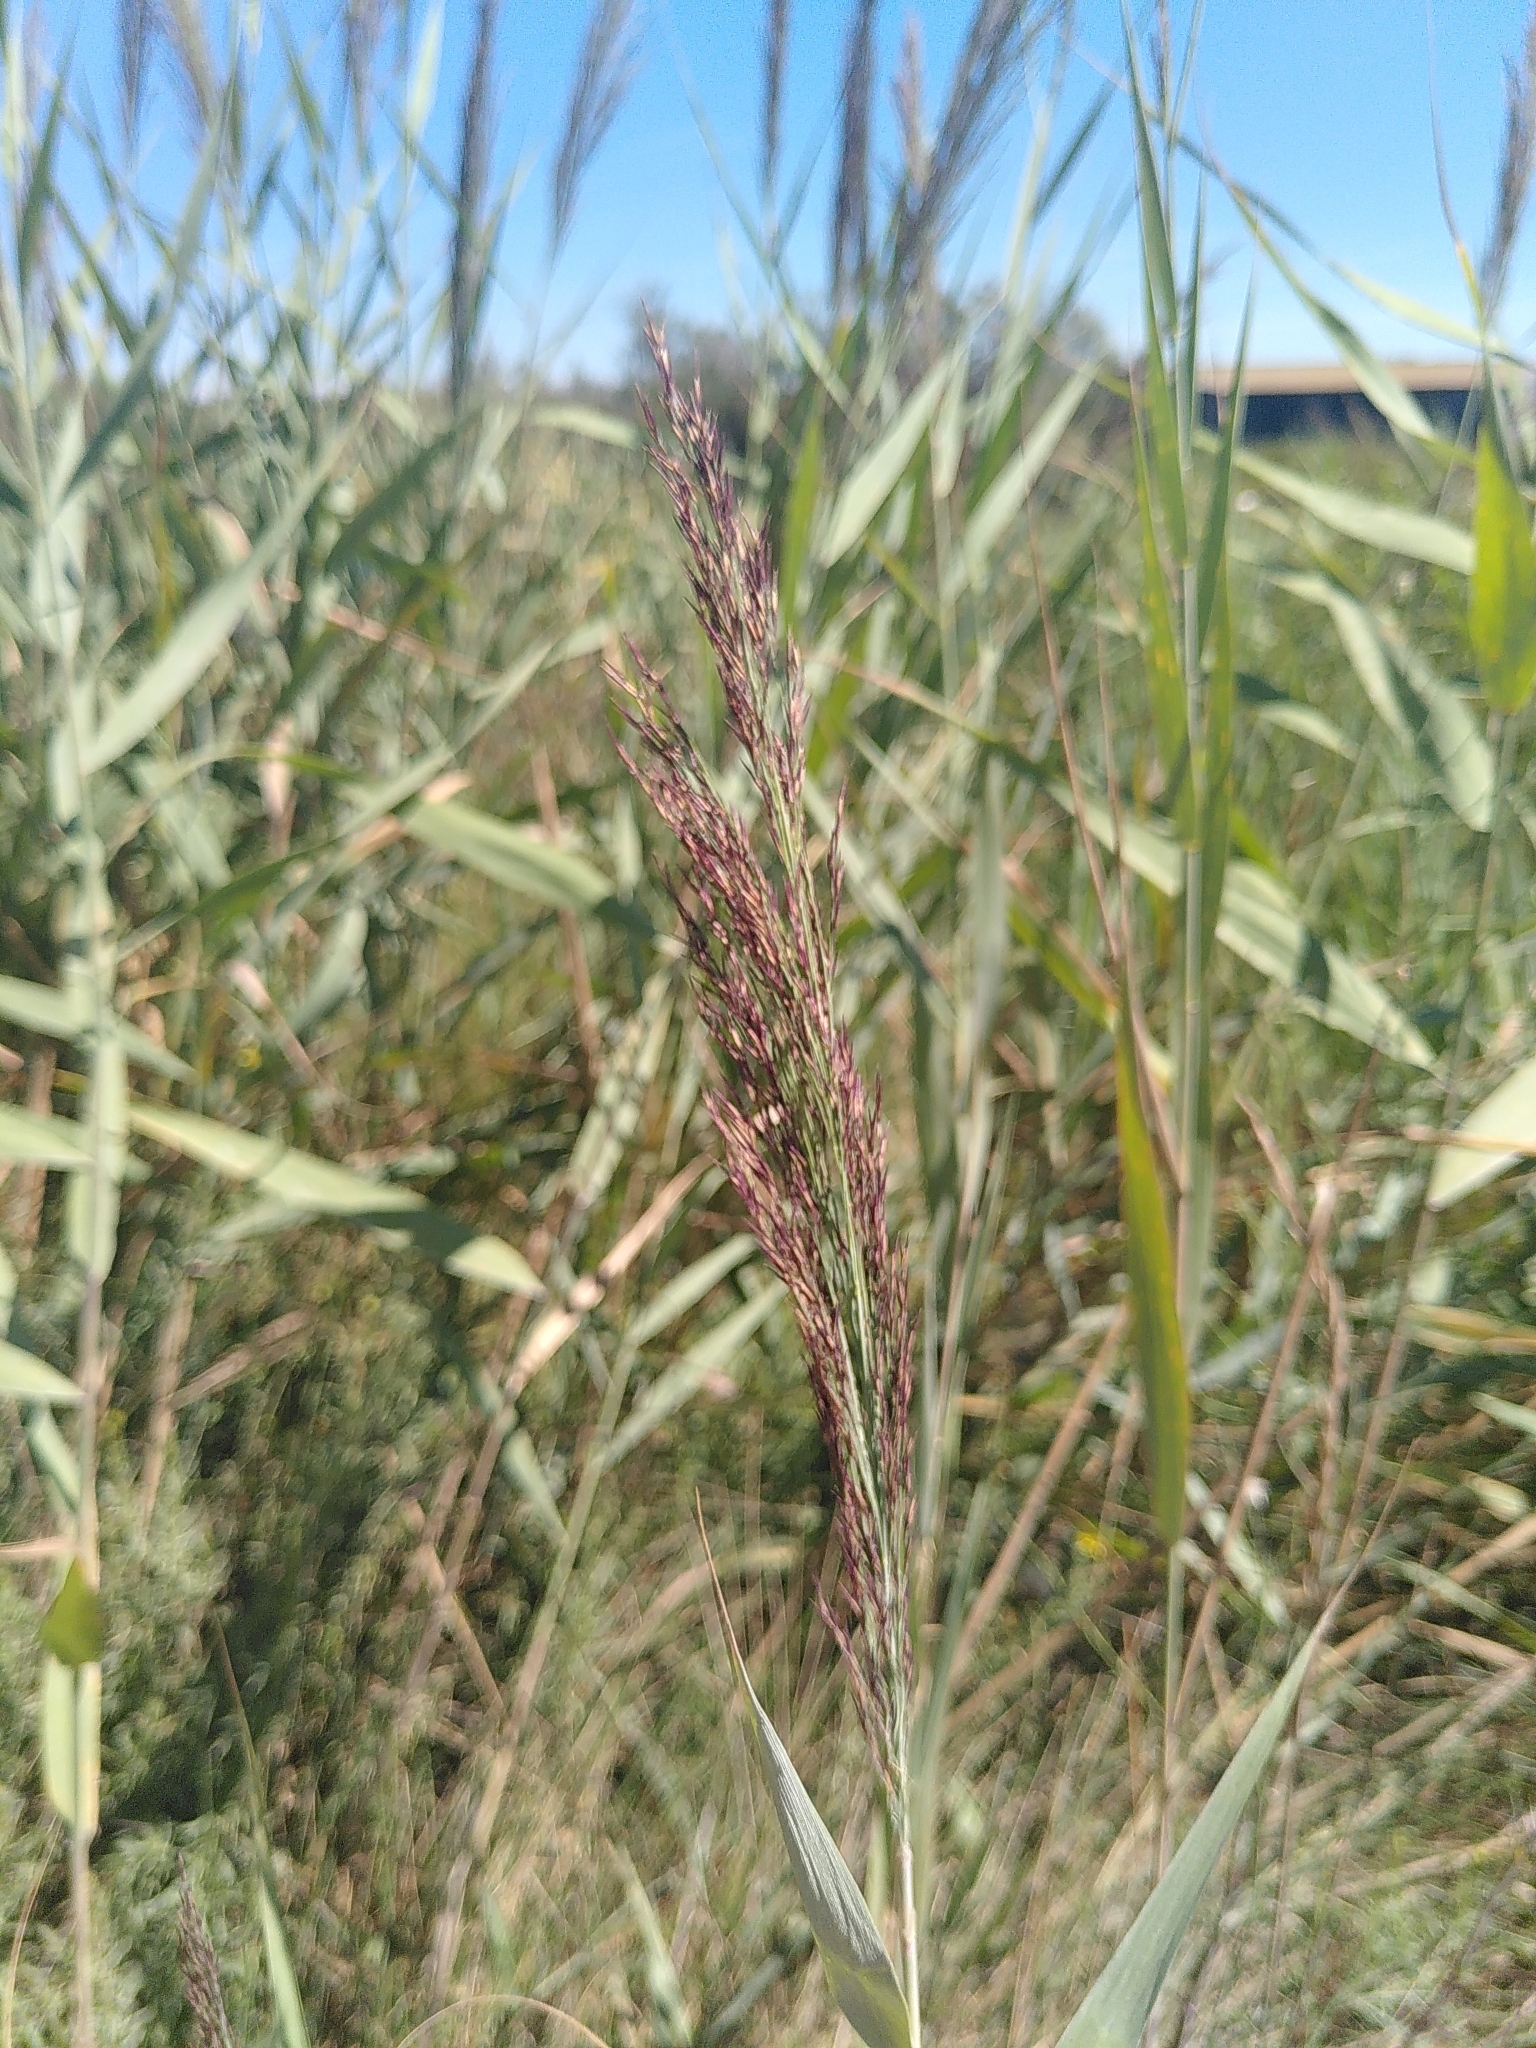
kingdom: Plantae
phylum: Tracheophyta
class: Liliopsida
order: Poales
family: Poaceae
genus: Phragmites
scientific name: Phragmites australis
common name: Common reed
